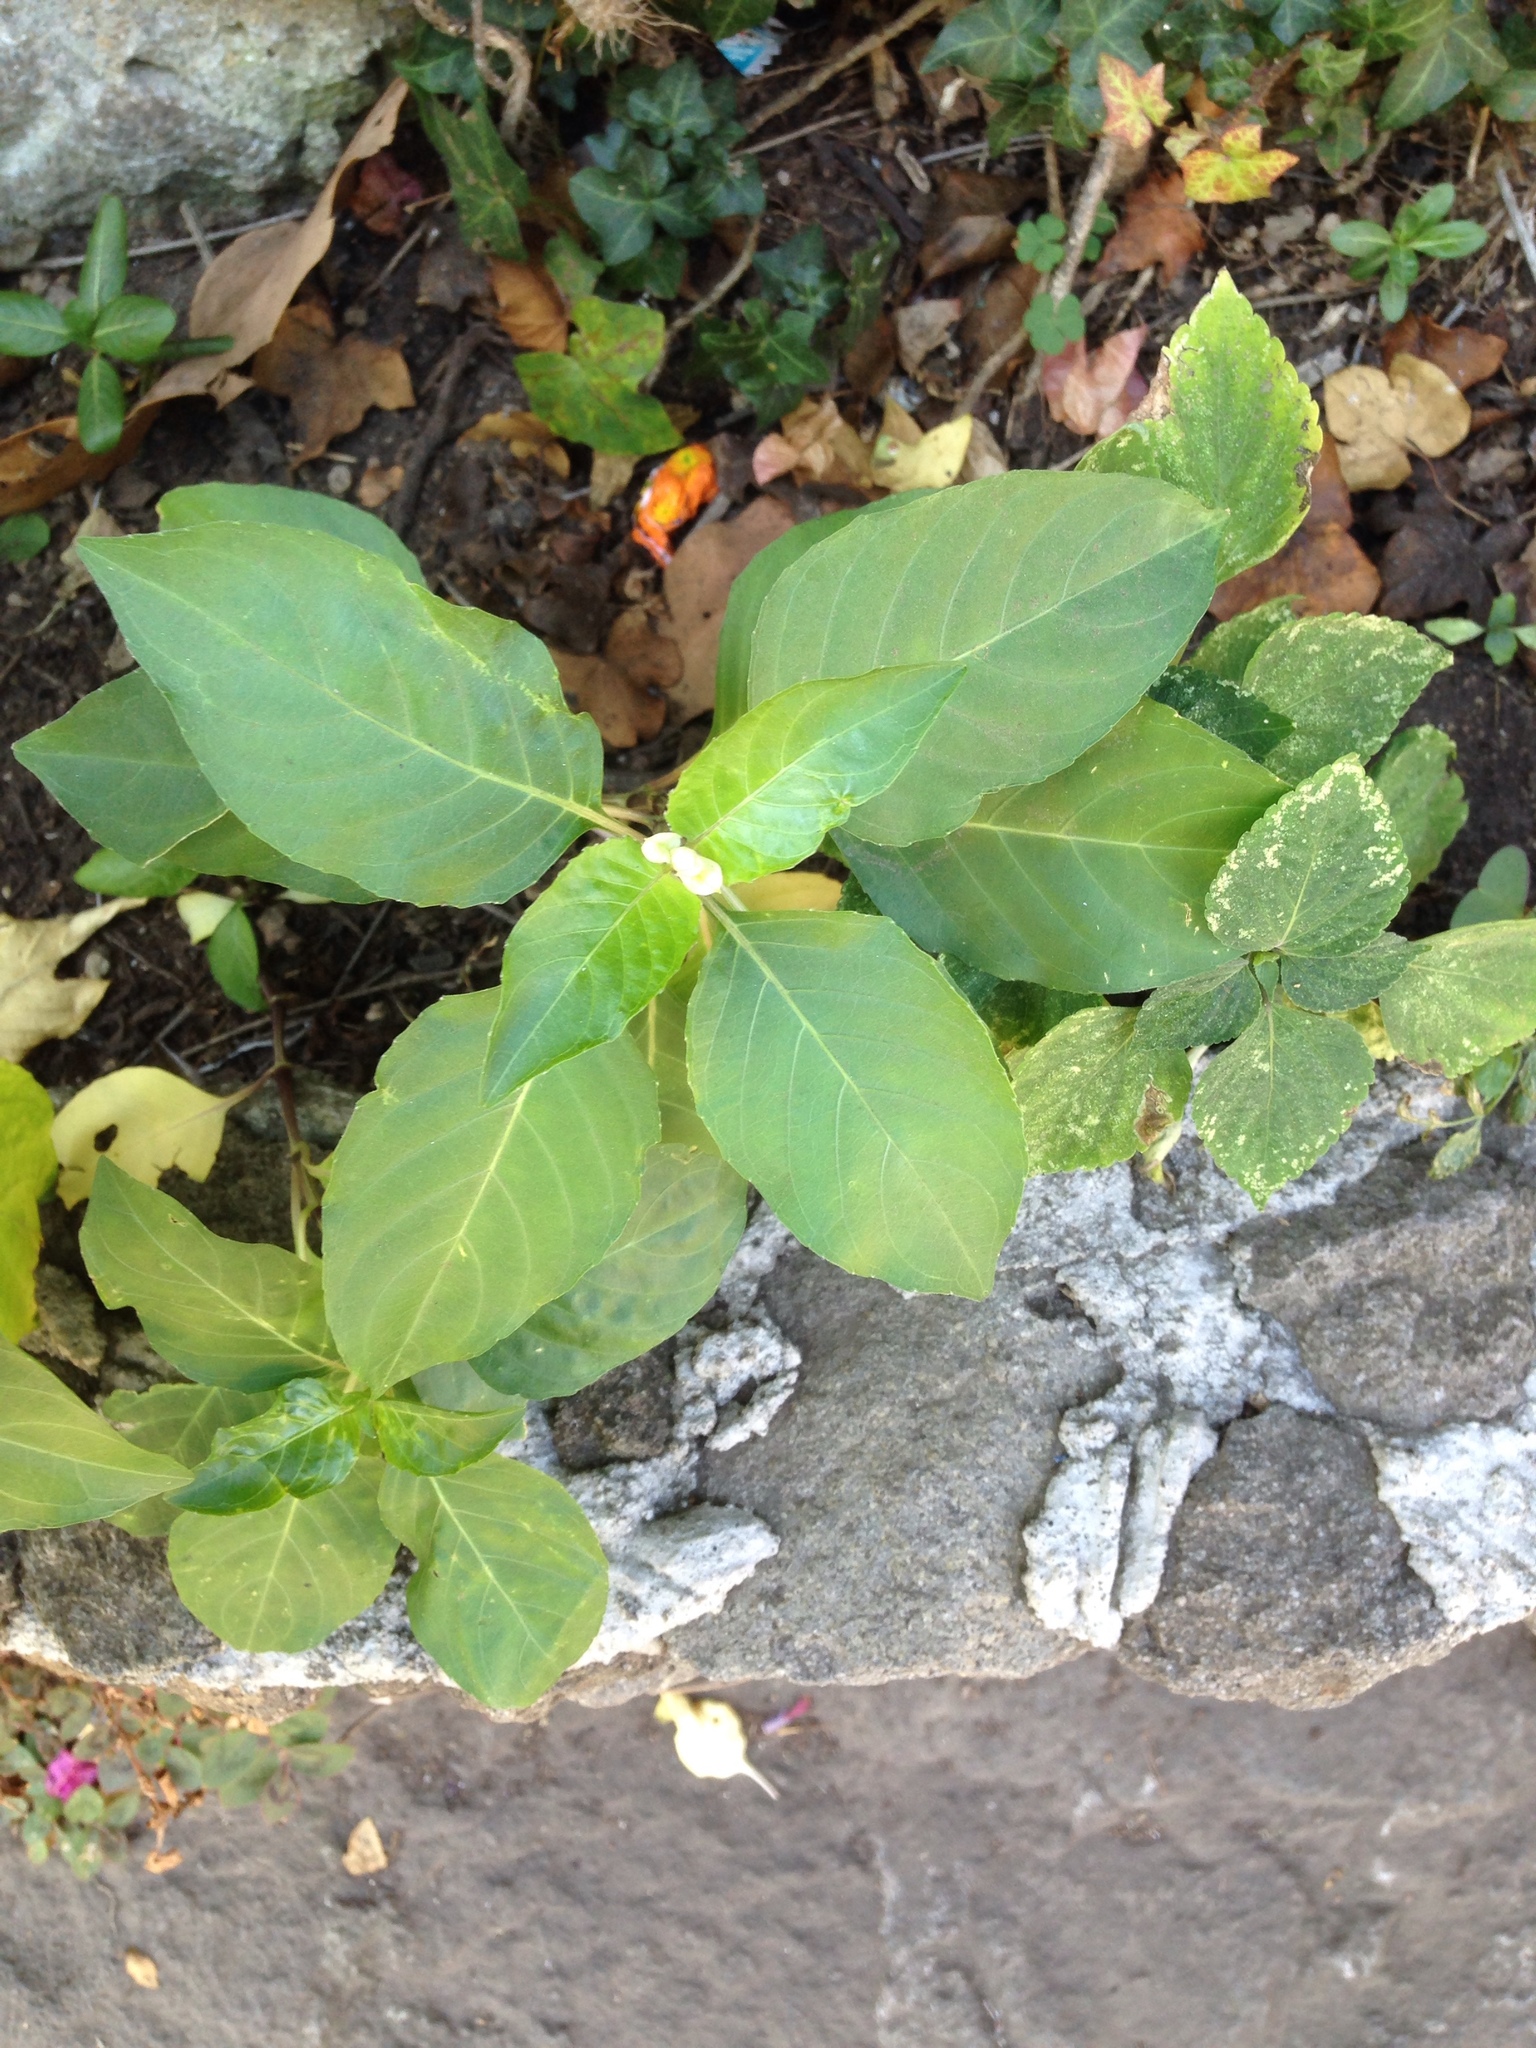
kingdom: Plantae
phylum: Tracheophyta
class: Magnoliopsida
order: Lamiales
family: Acanthaceae
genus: Justicia
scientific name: Justicia betonica
